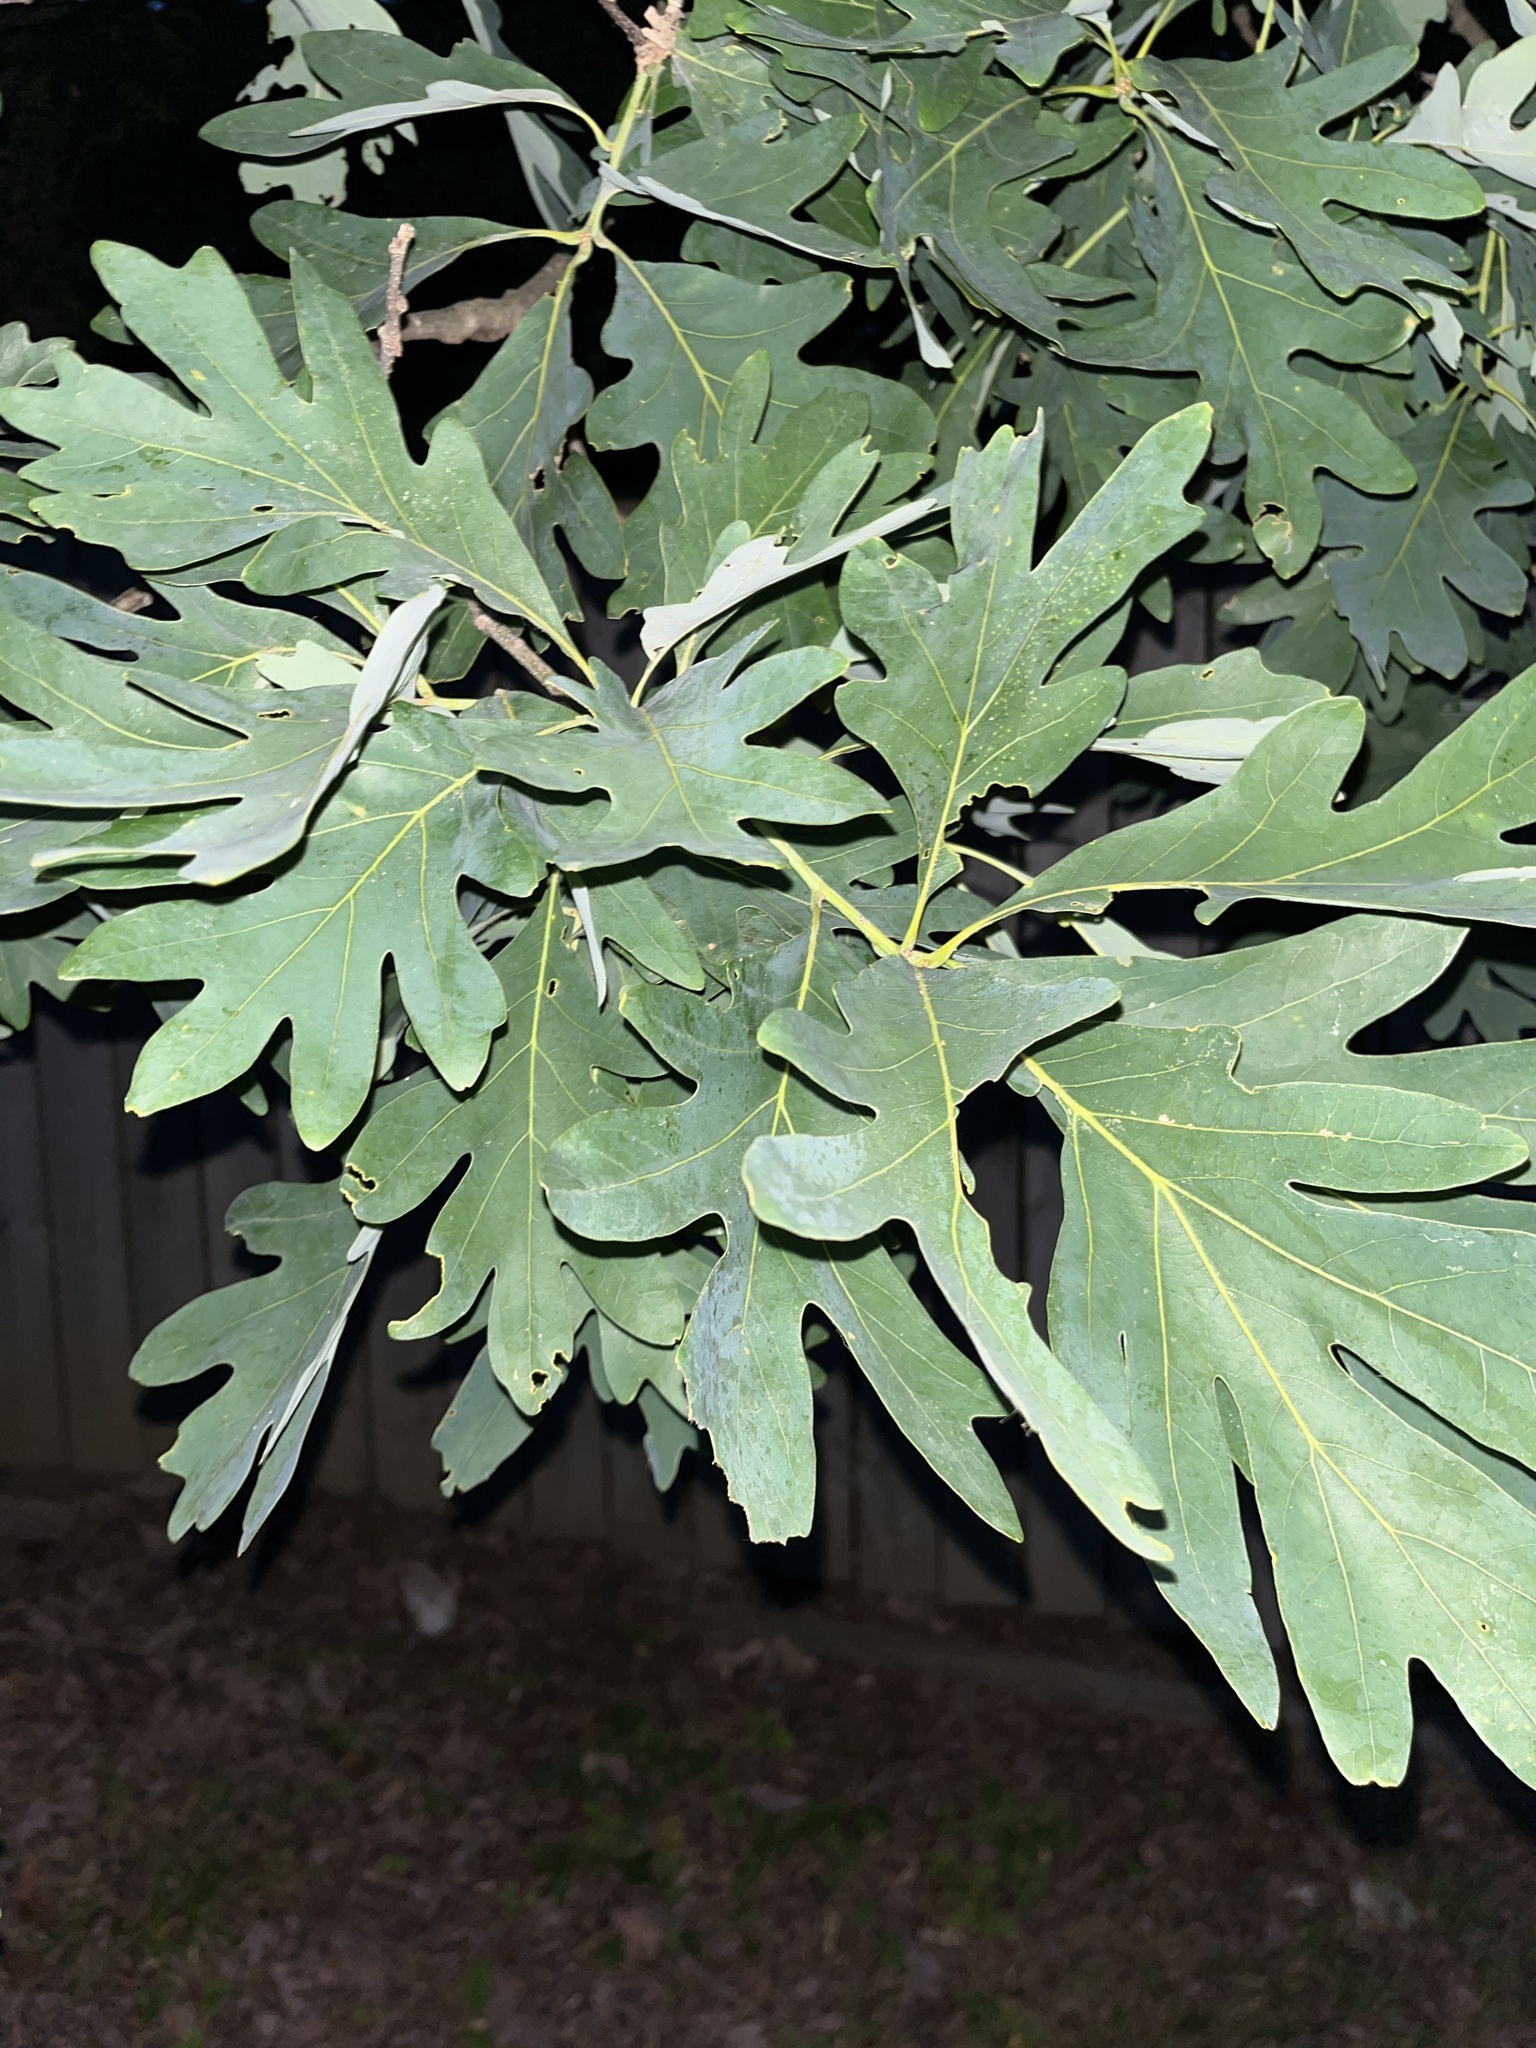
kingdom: Plantae
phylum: Tracheophyta
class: Magnoliopsida
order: Fagales
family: Fagaceae
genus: Quercus
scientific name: Quercus alba
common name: White oak
